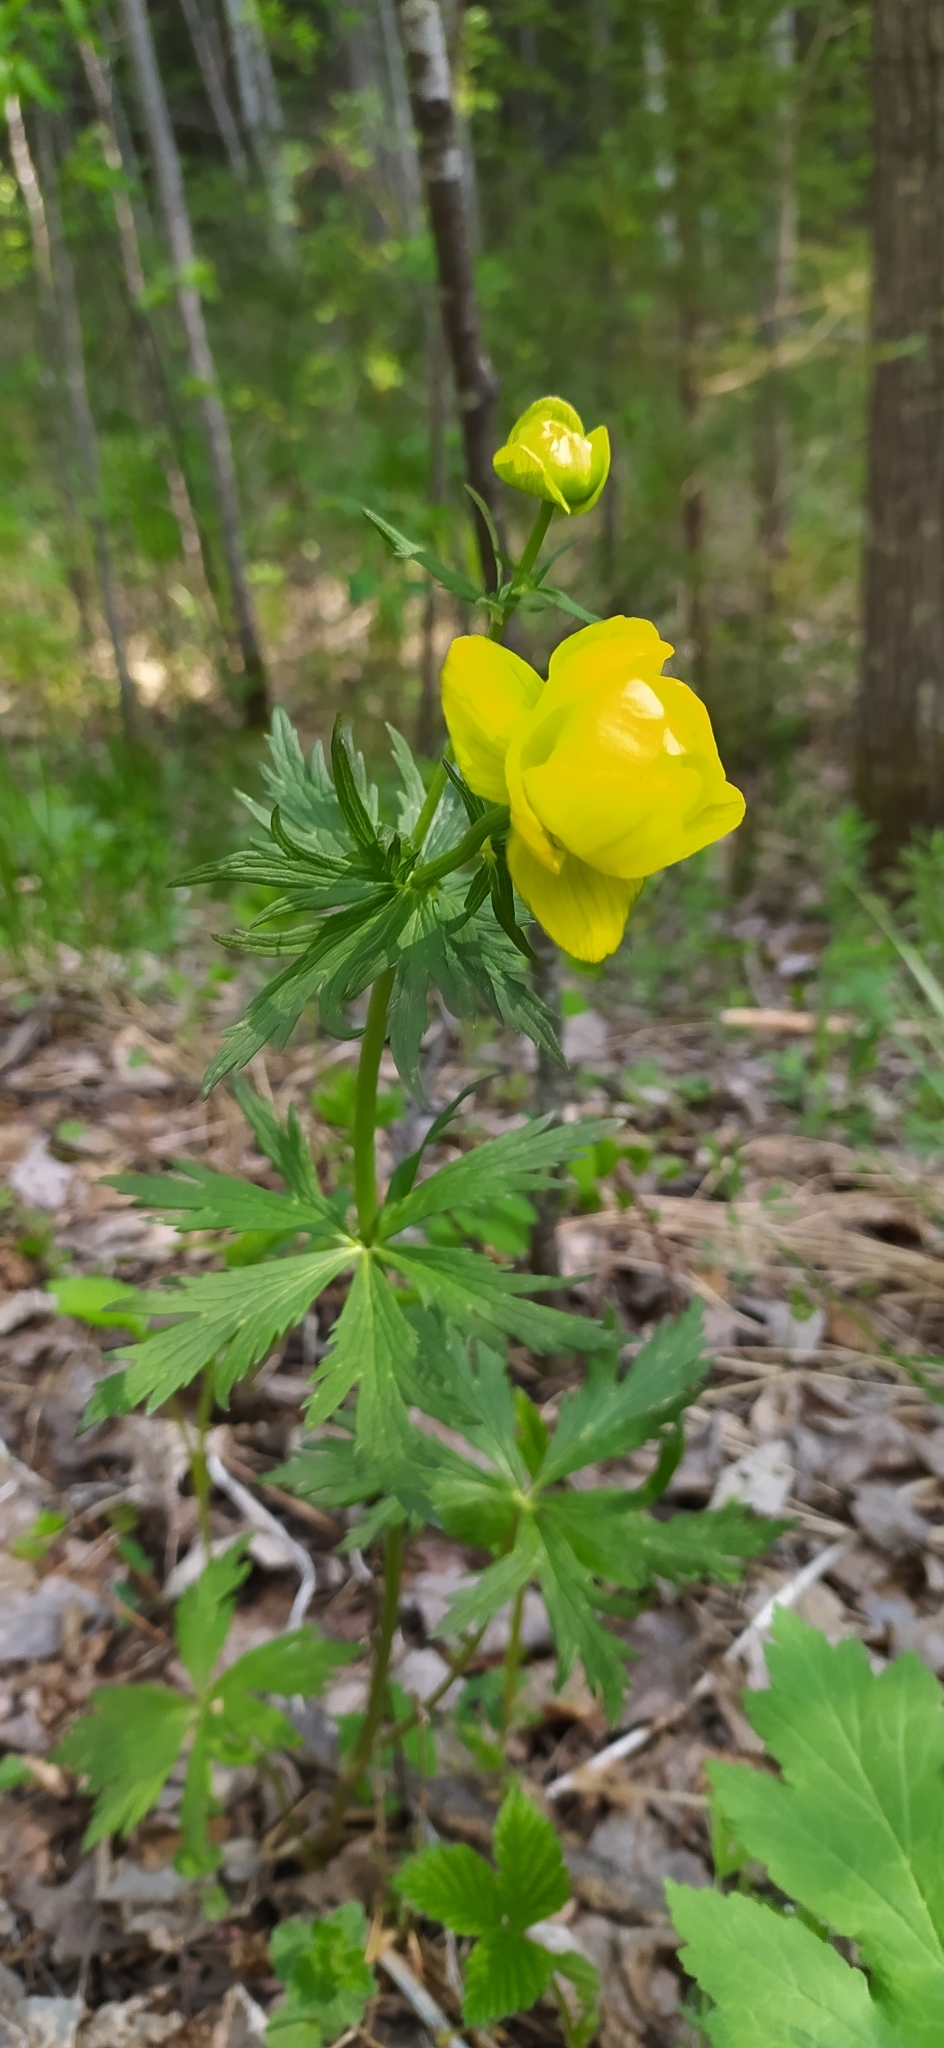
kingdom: Plantae
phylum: Tracheophyta
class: Magnoliopsida
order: Ranunculales
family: Ranunculaceae
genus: Trollius
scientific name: Trollius europaeus
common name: European globeflower
